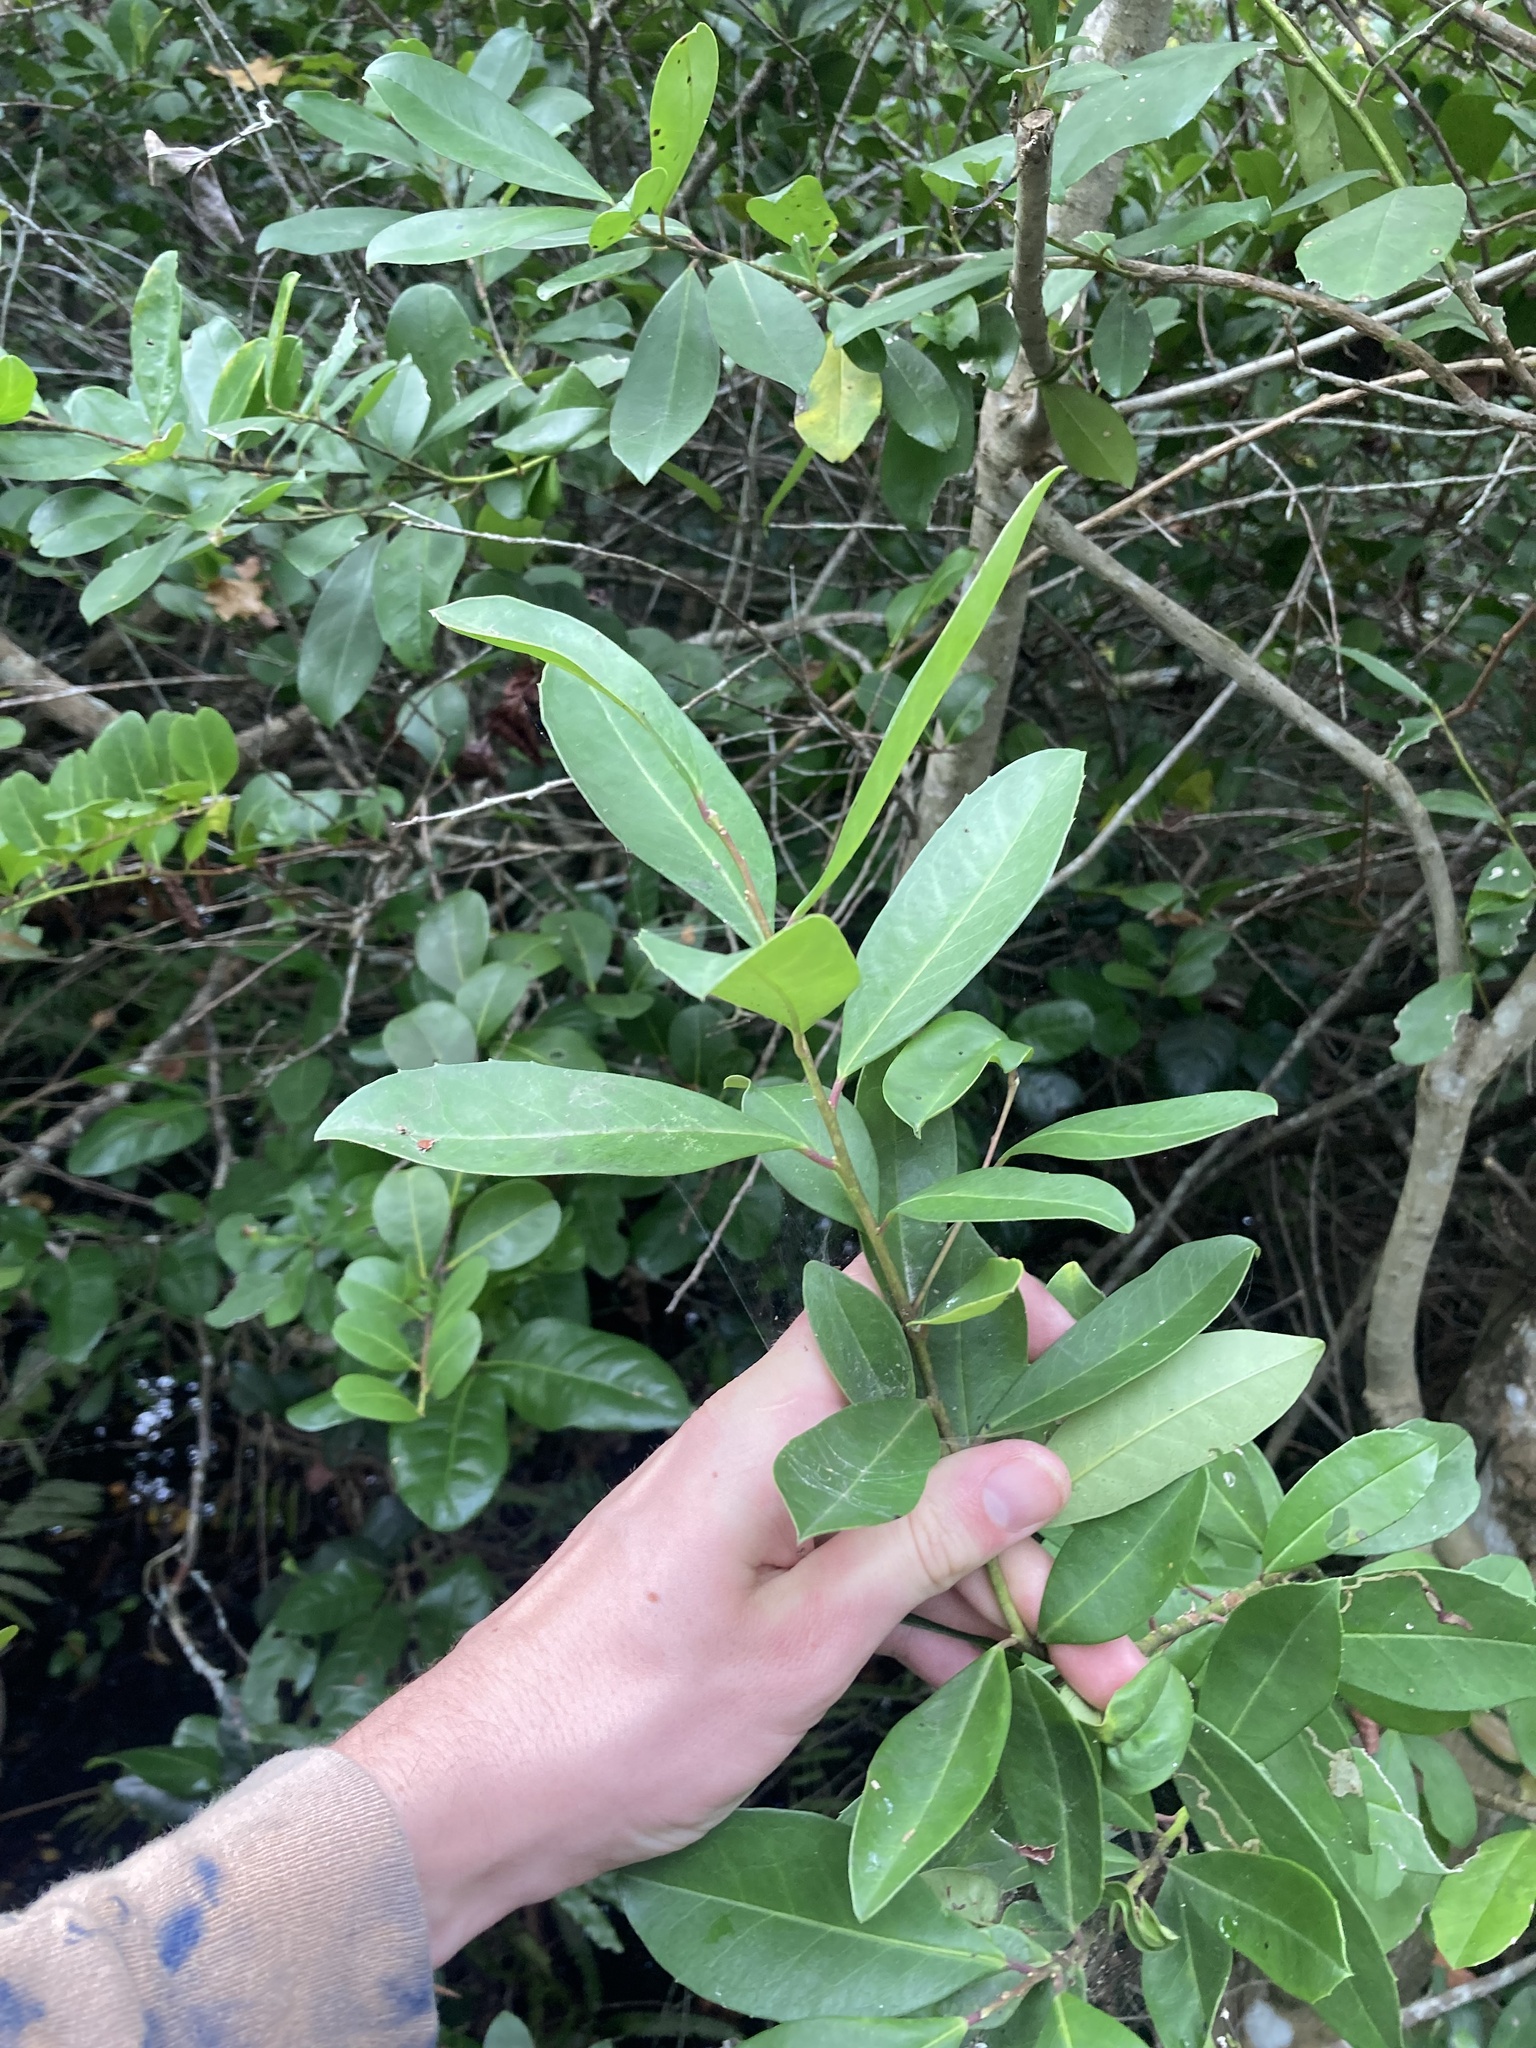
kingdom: Plantae
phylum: Tracheophyta
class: Magnoliopsida
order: Aquifoliales
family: Aquifoliaceae
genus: Ilex
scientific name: Ilex cassine
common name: Dahoon
